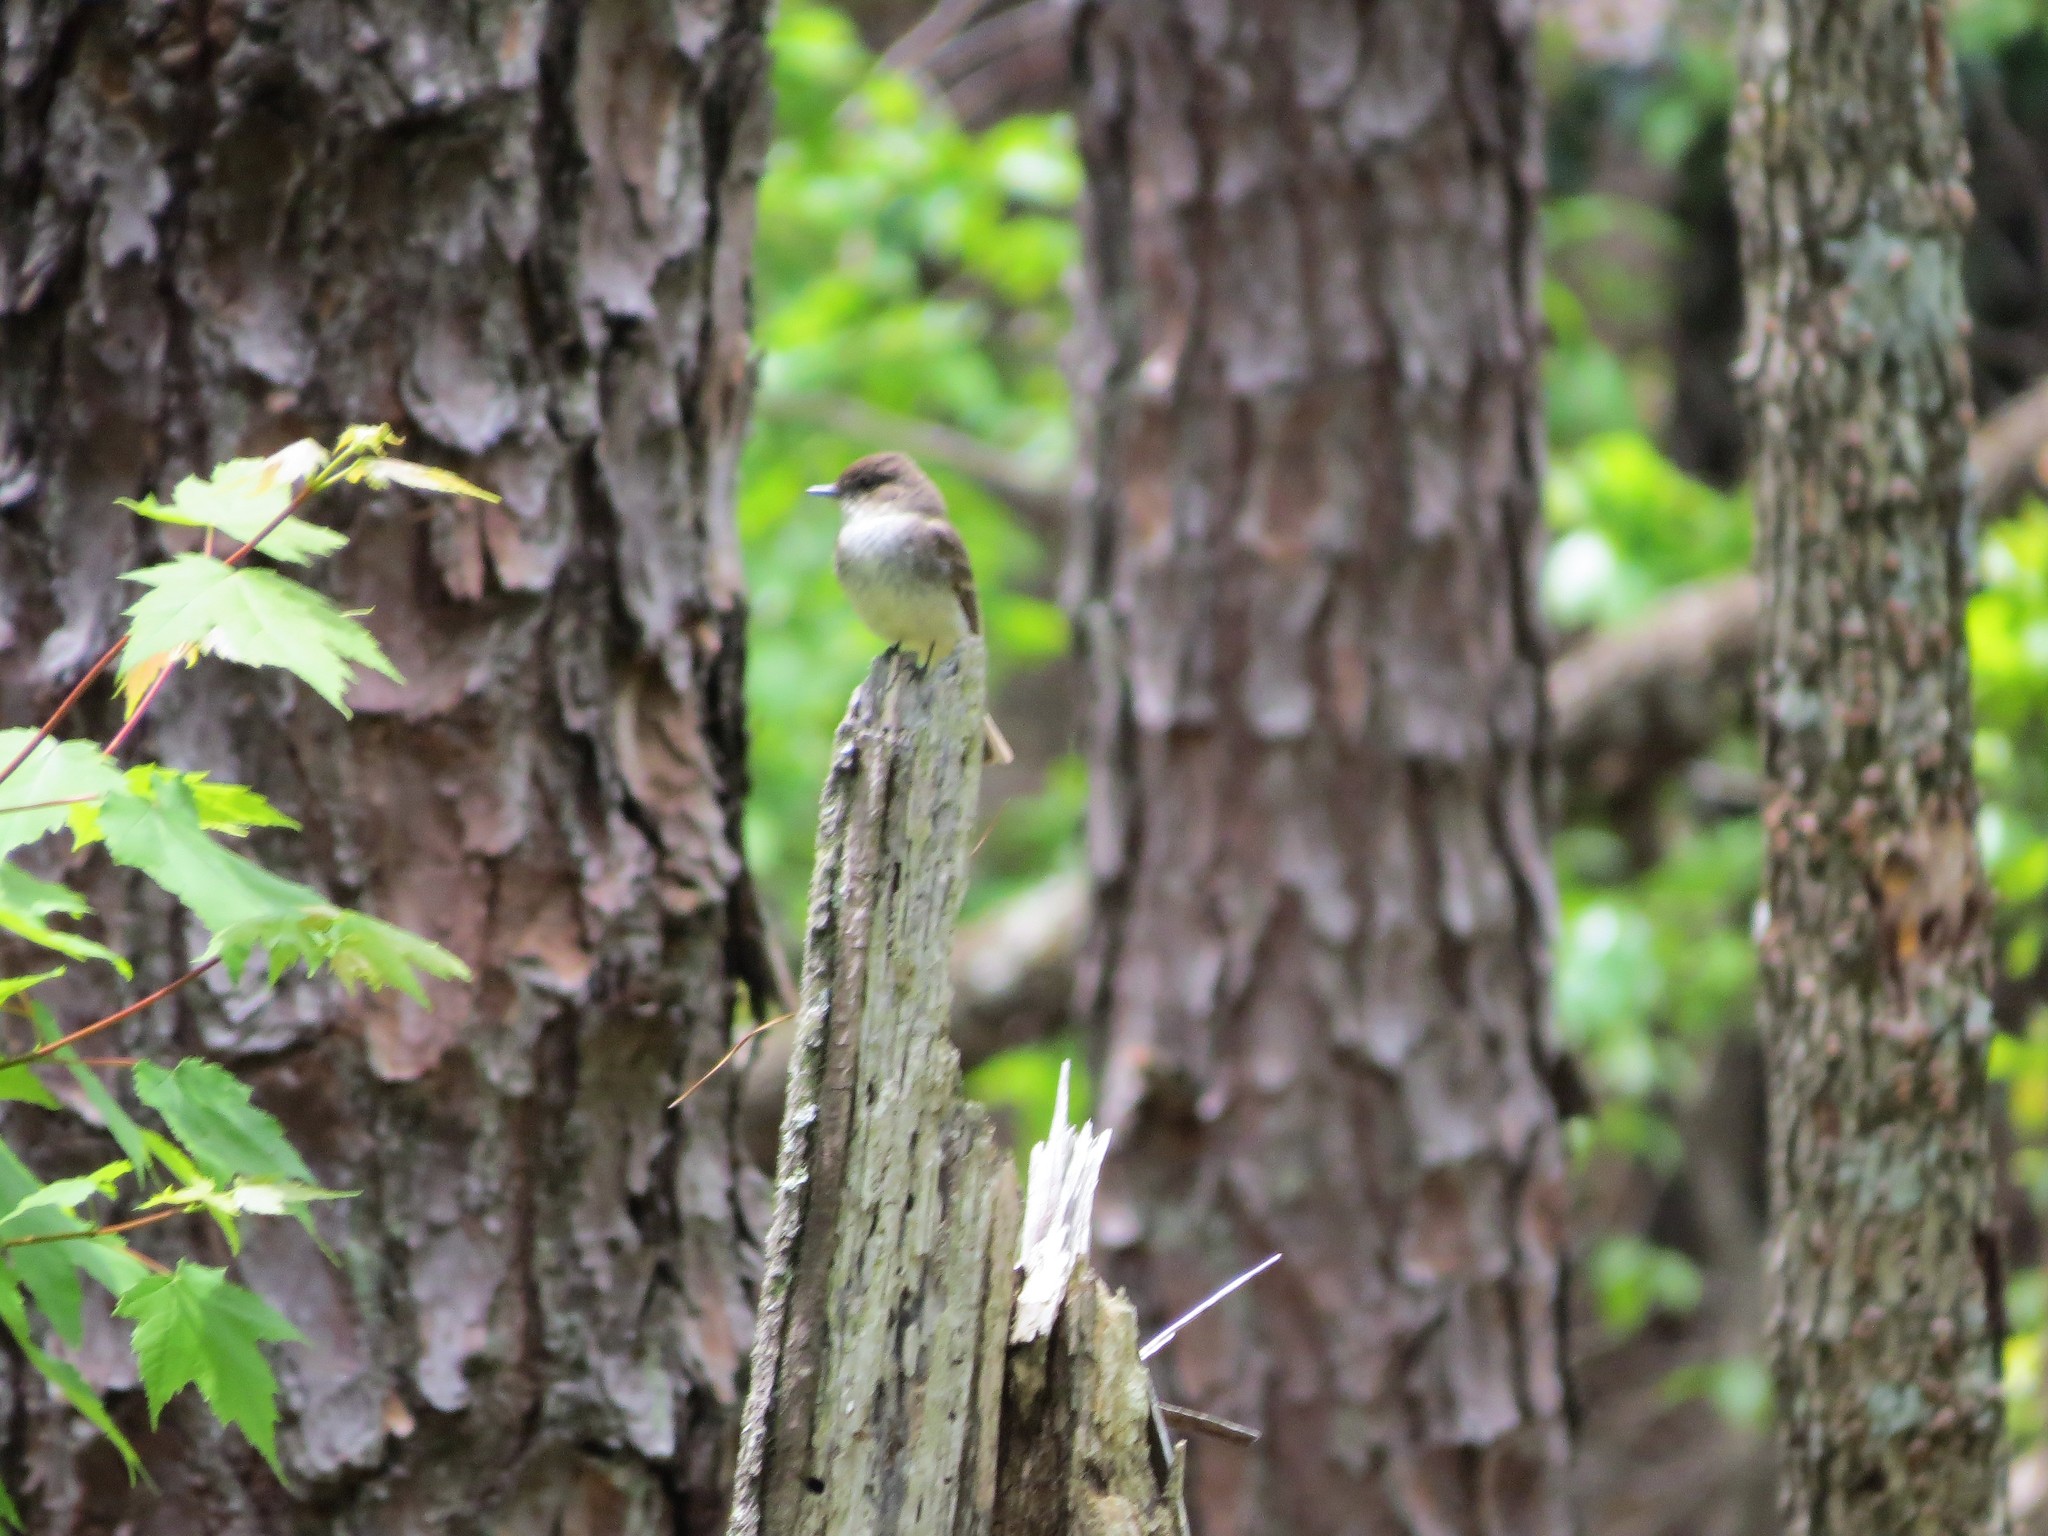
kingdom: Animalia
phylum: Chordata
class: Aves
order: Passeriformes
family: Tyrannidae
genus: Sayornis
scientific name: Sayornis phoebe
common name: Eastern phoebe
